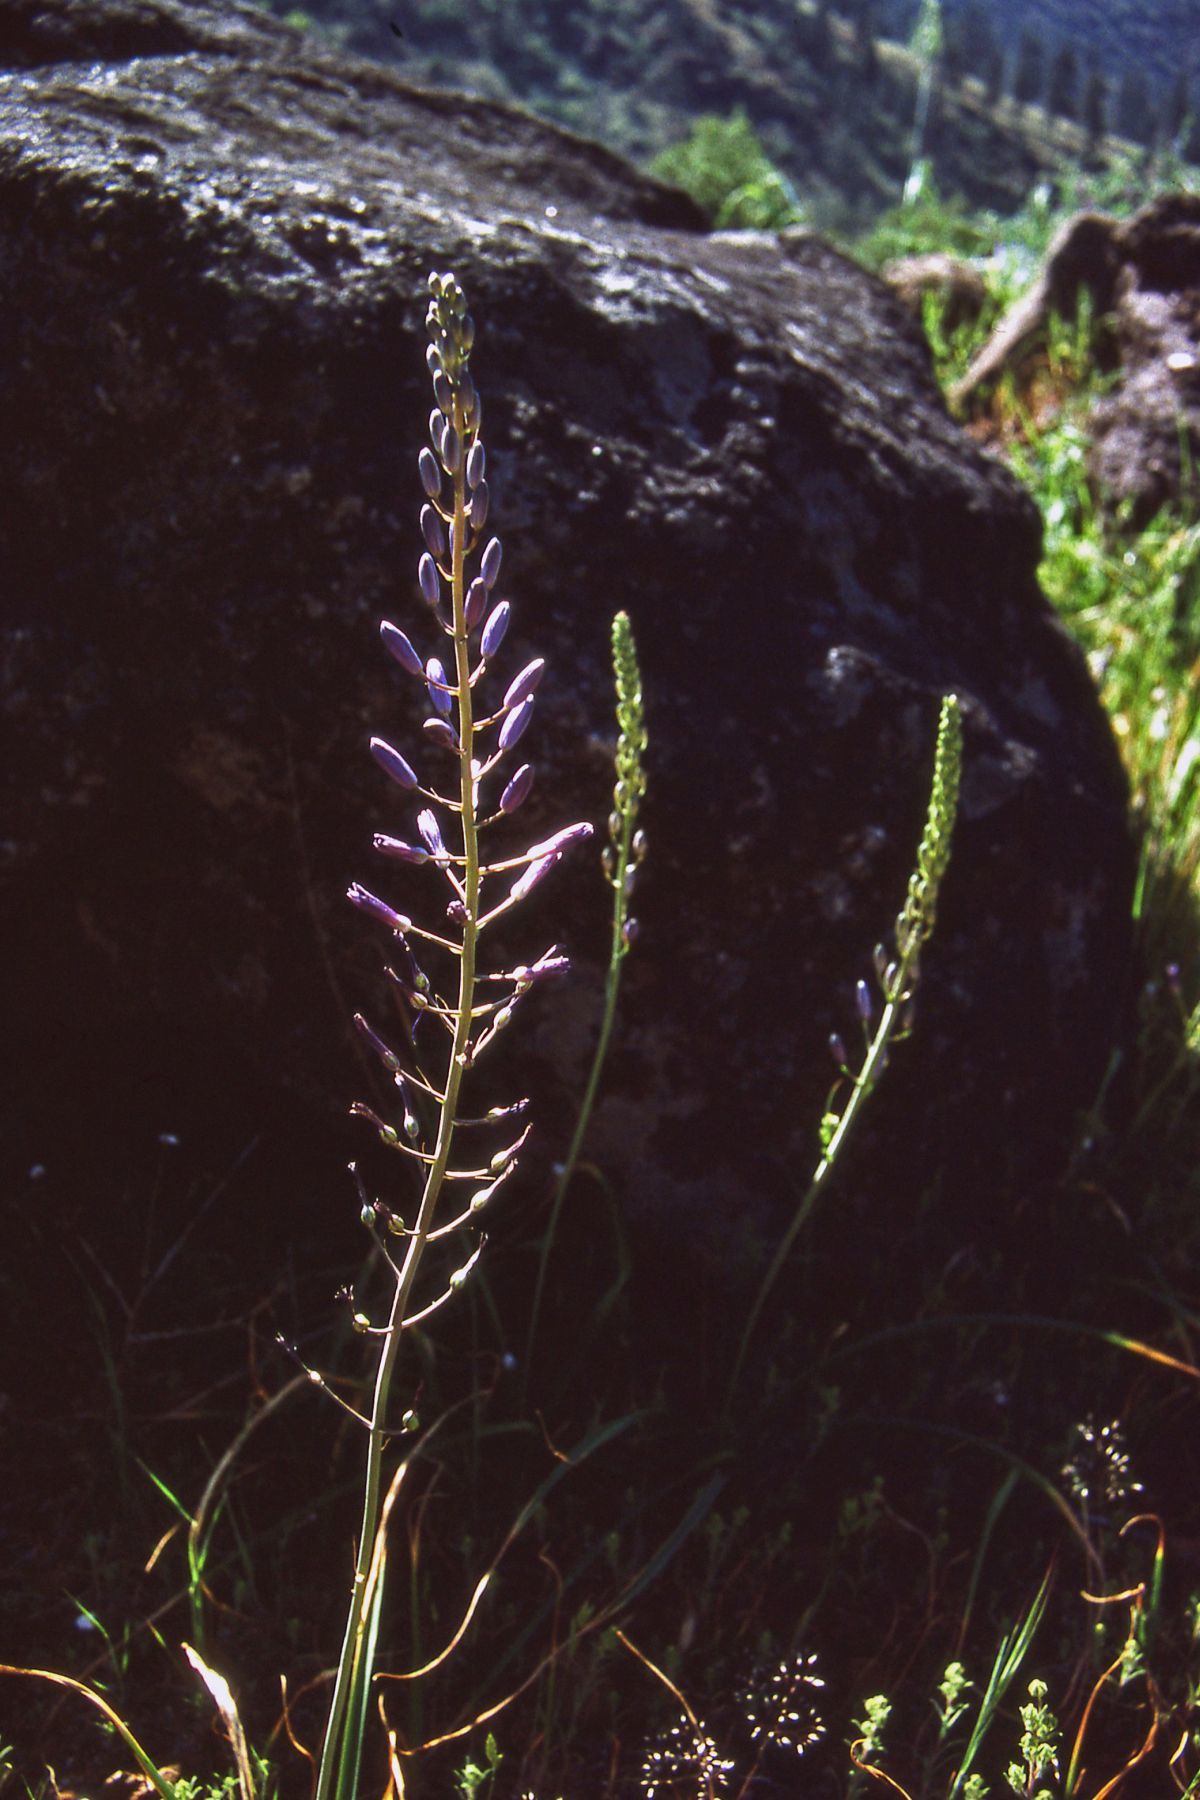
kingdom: Plantae
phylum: Tracheophyta
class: Liliopsida
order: Asparagales
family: Asparagaceae
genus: Camassia
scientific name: Camassia howellii
